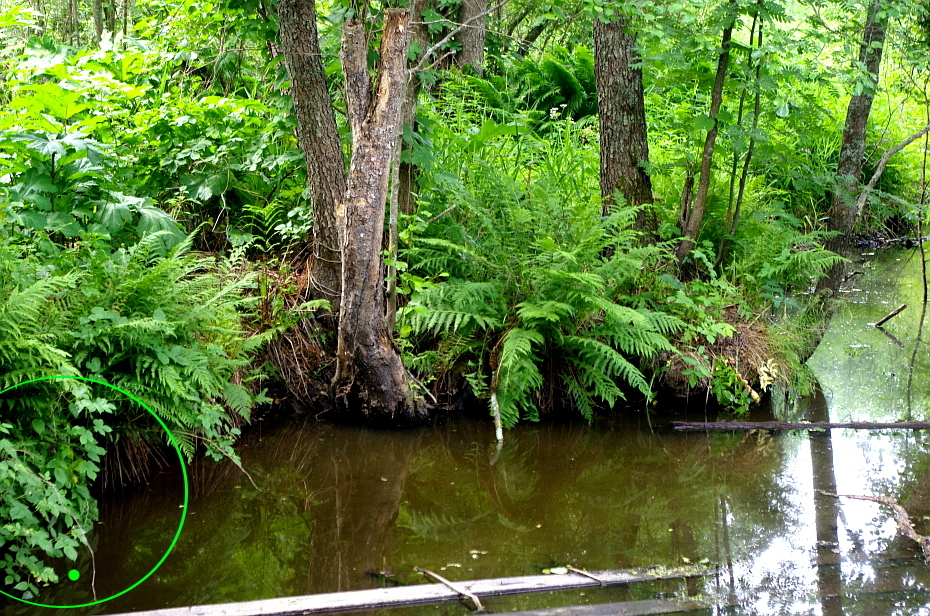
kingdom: Plantae
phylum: Tracheophyta
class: Magnoliopsida
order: Rosales
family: Rosaceae
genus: Rubus
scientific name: Rubus idaeus
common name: Raspberry
